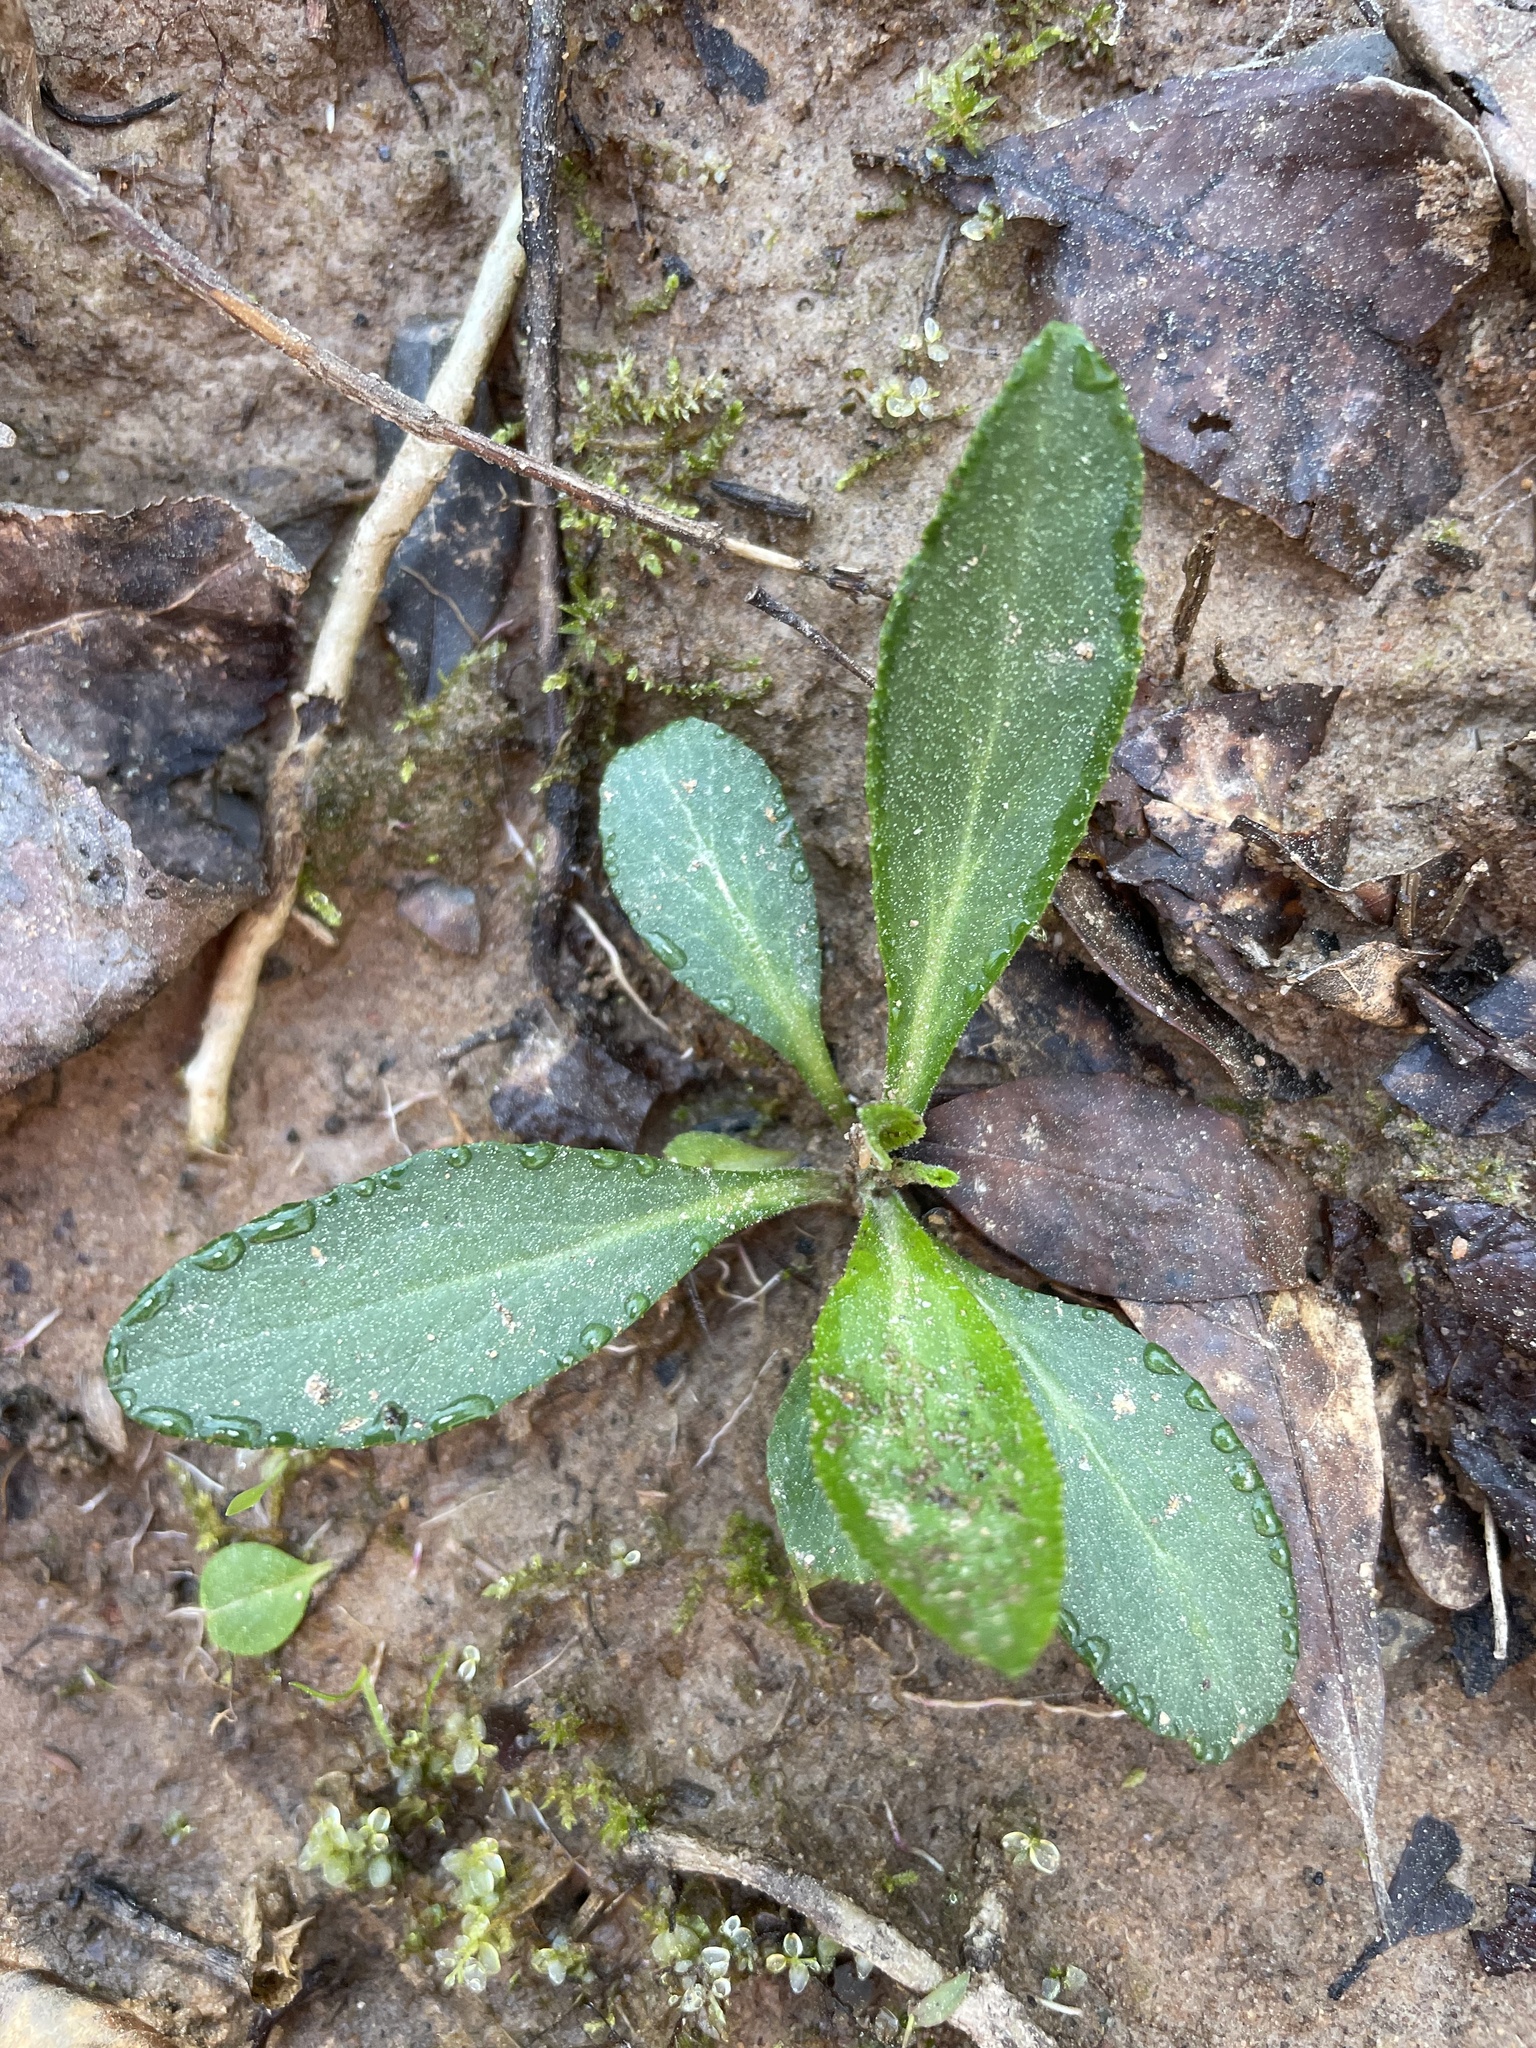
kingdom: Plantae
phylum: Tracheophyta
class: Magnoliopsida
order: Asterales
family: Campanulaceae
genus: Lobelia
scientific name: Lobelia amoena
